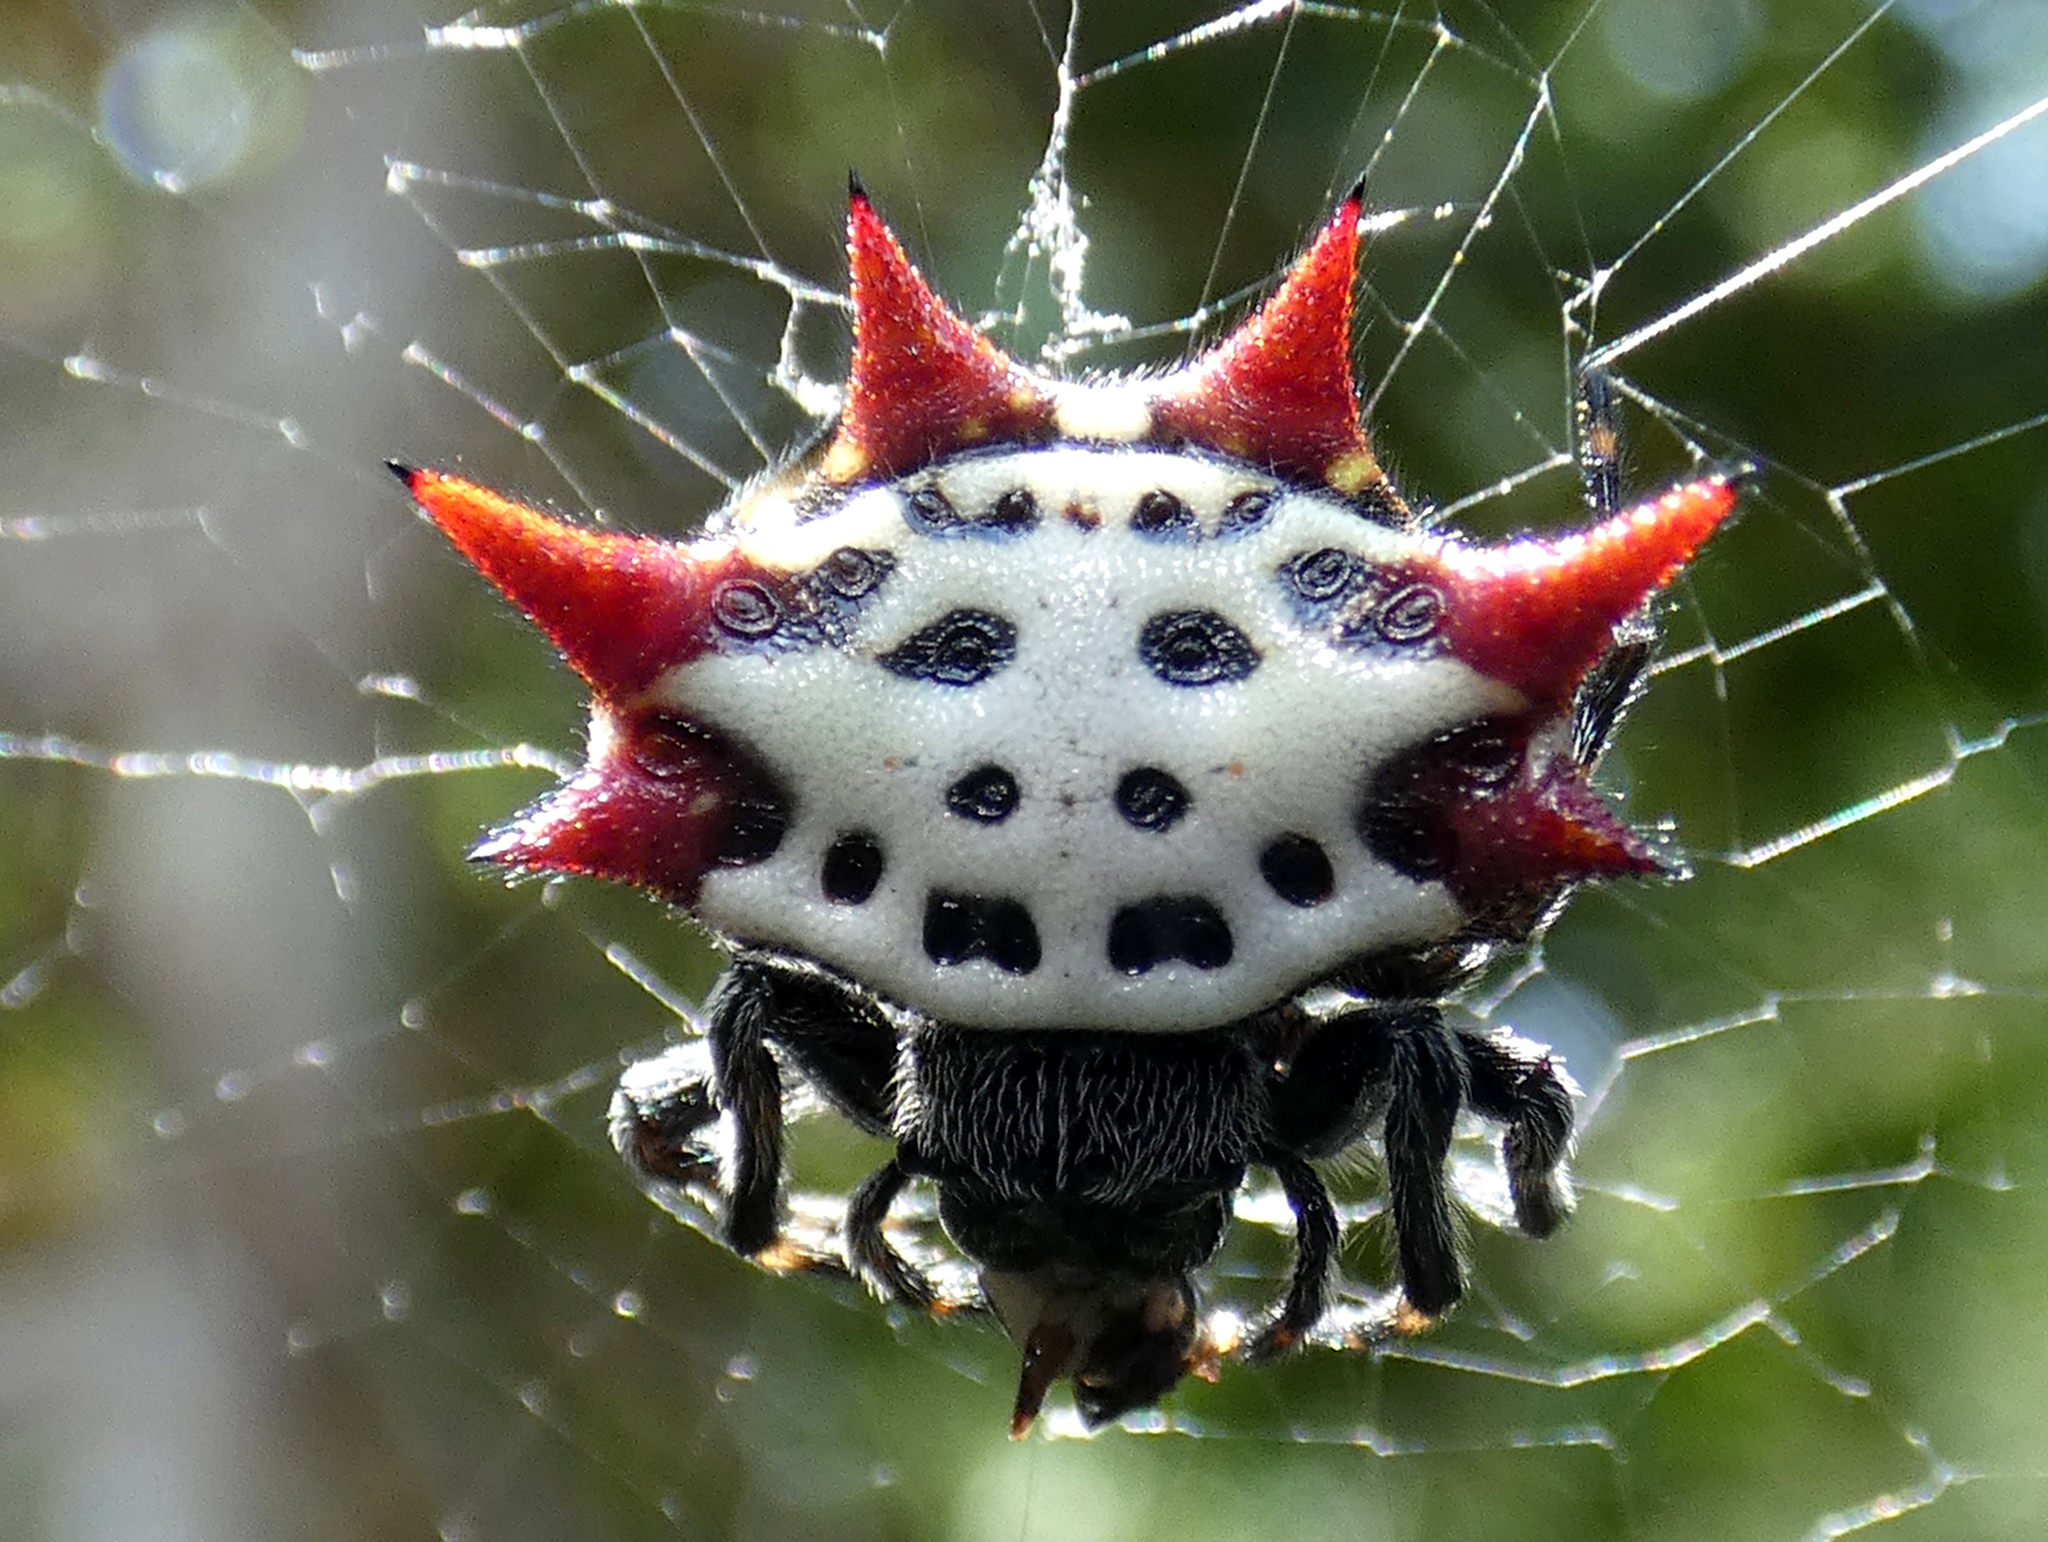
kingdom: Animalia
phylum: Arthropoda
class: Arachnida
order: Araneae
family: Araneidae
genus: Gasteracantha
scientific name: Gasteracantha cancriformis
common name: Orb weavers
